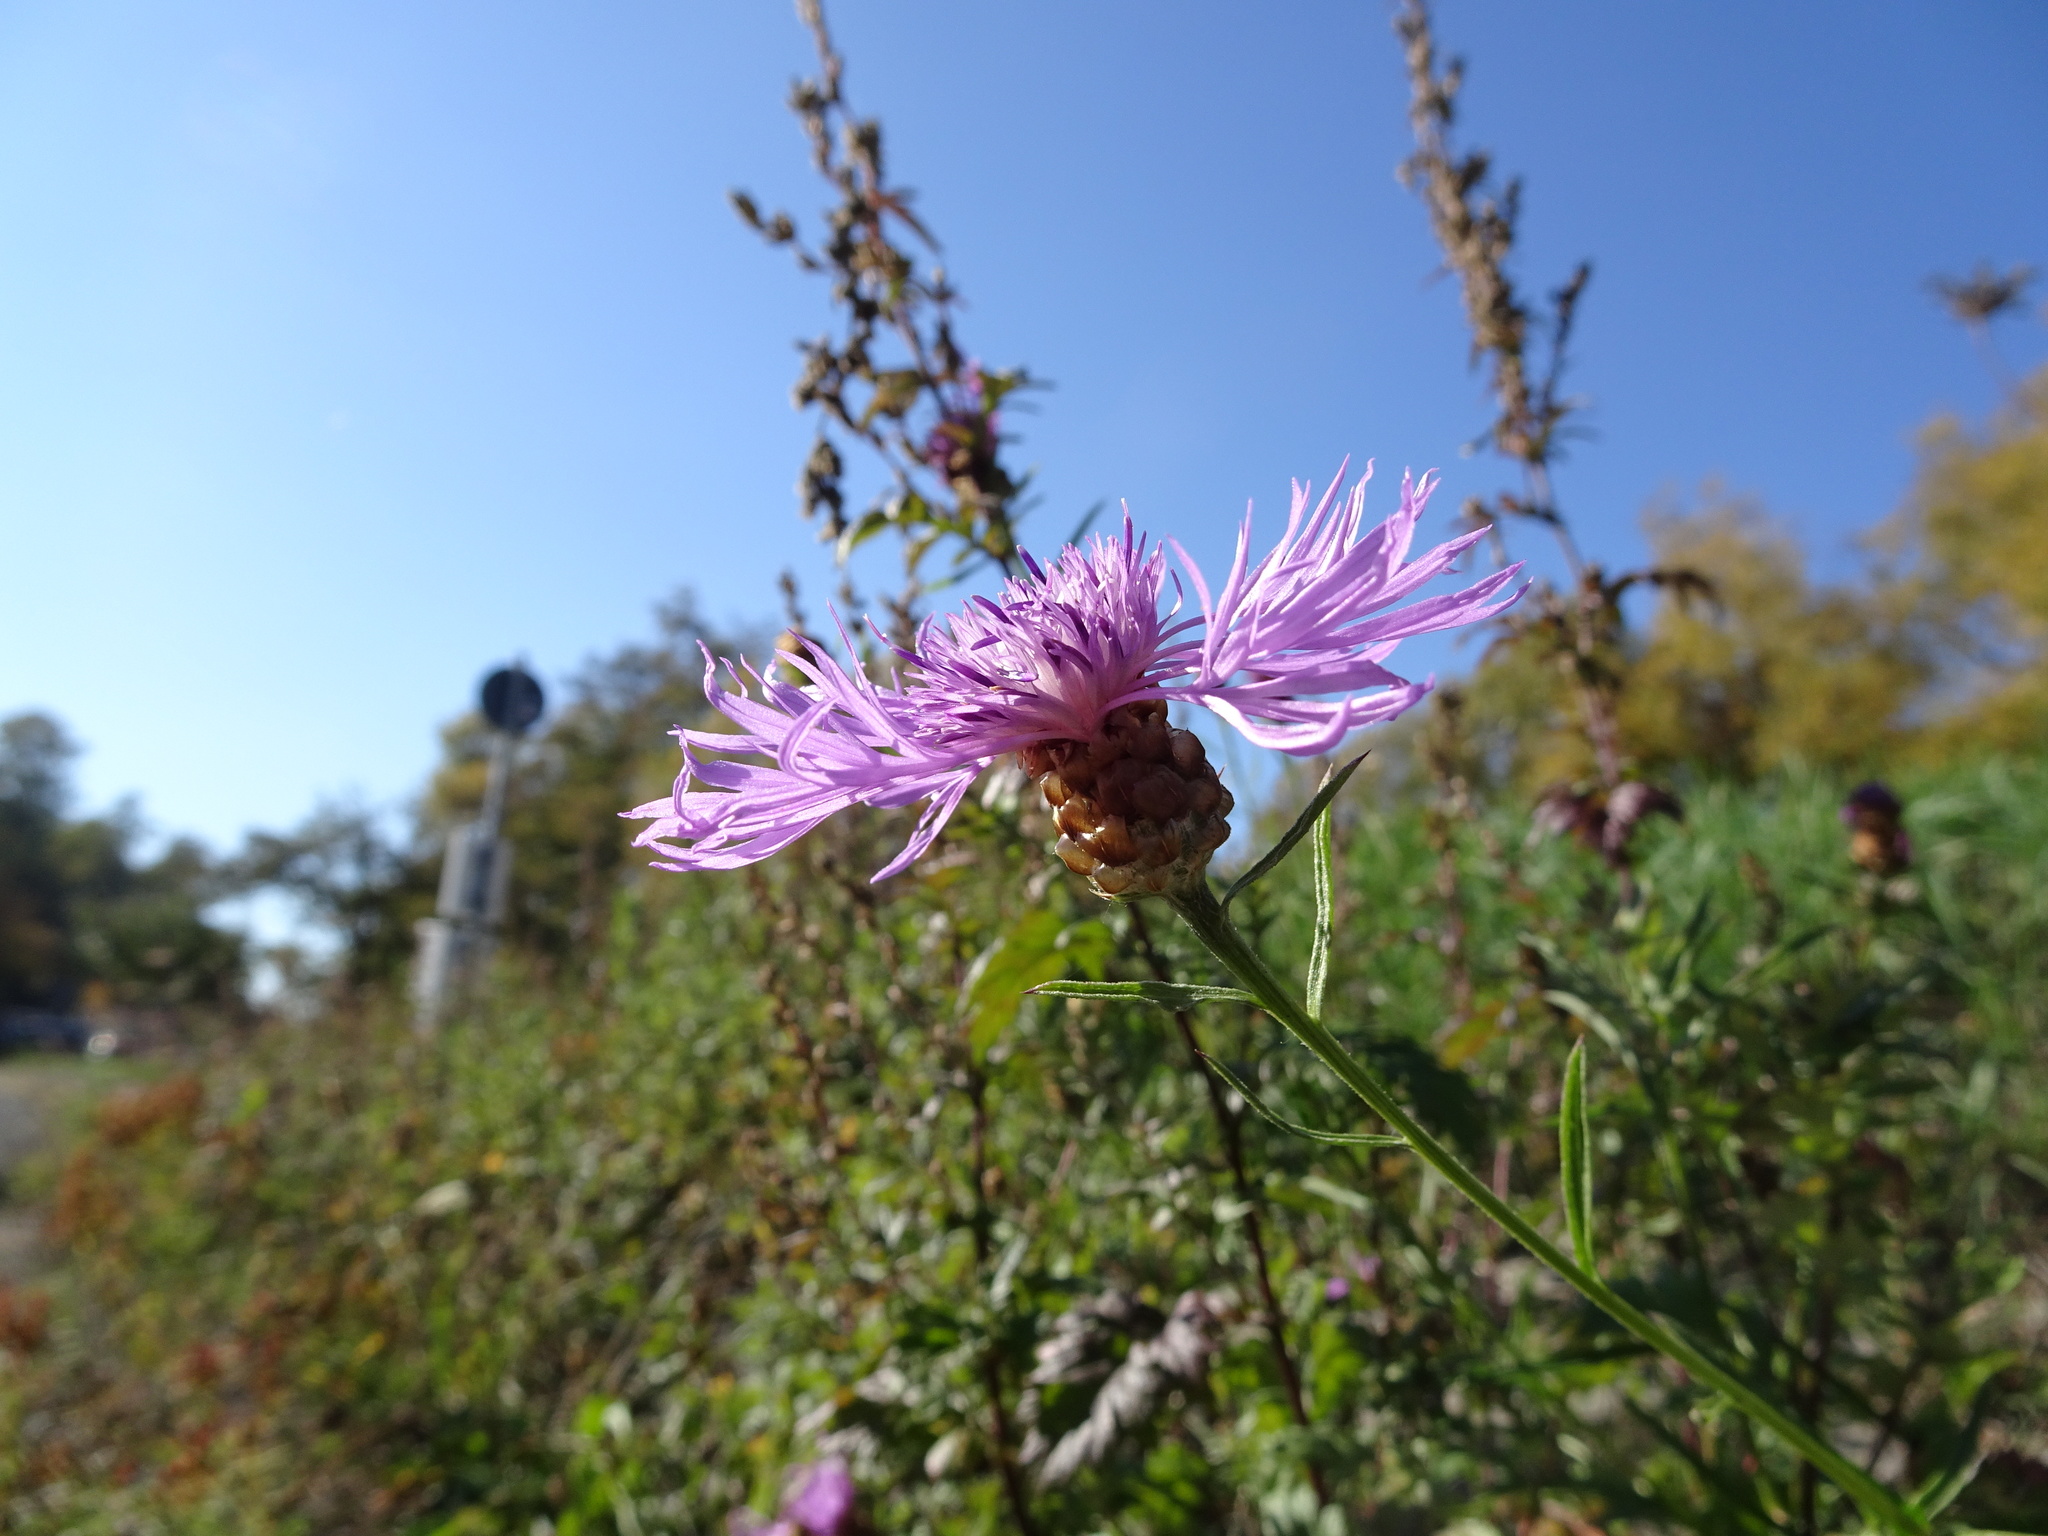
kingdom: Plantae
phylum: Tracheophyta
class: Magnoliopsida
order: Asterales
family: Asteraceae
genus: Centaurea
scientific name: Centaurea jacea
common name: Brown knapweed
